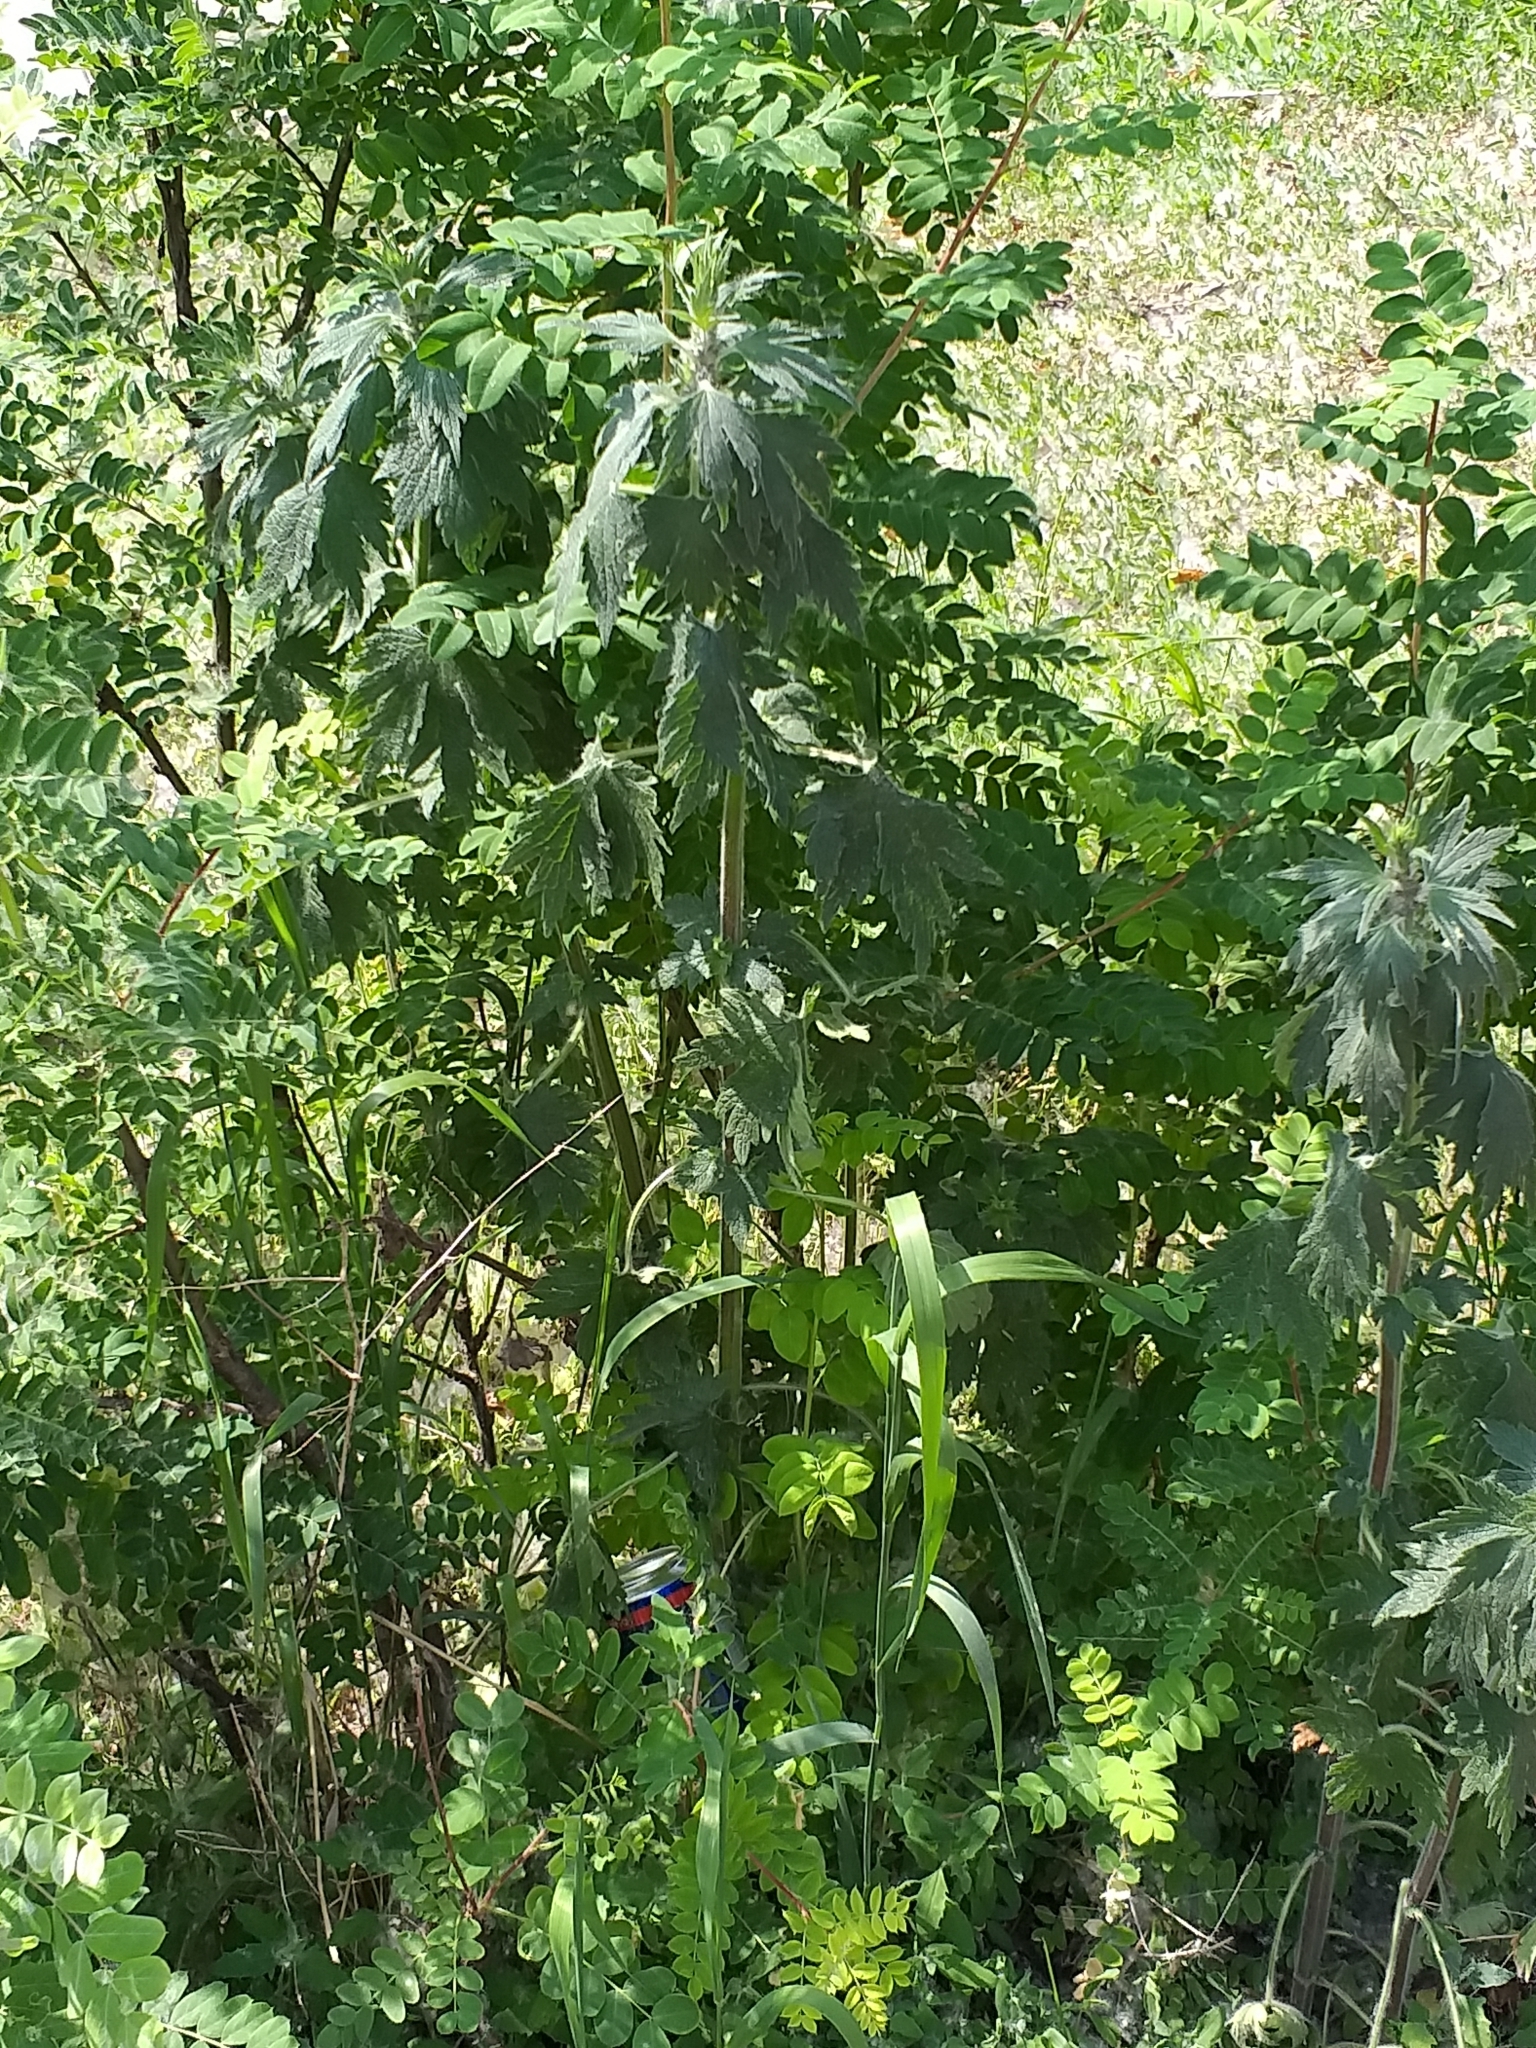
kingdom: Plantae
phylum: Tracheophyta
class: Magnoliopsida
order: Lamiales
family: Lamiaceae
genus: Leonurus
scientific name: Leonurus quinquelobatus
